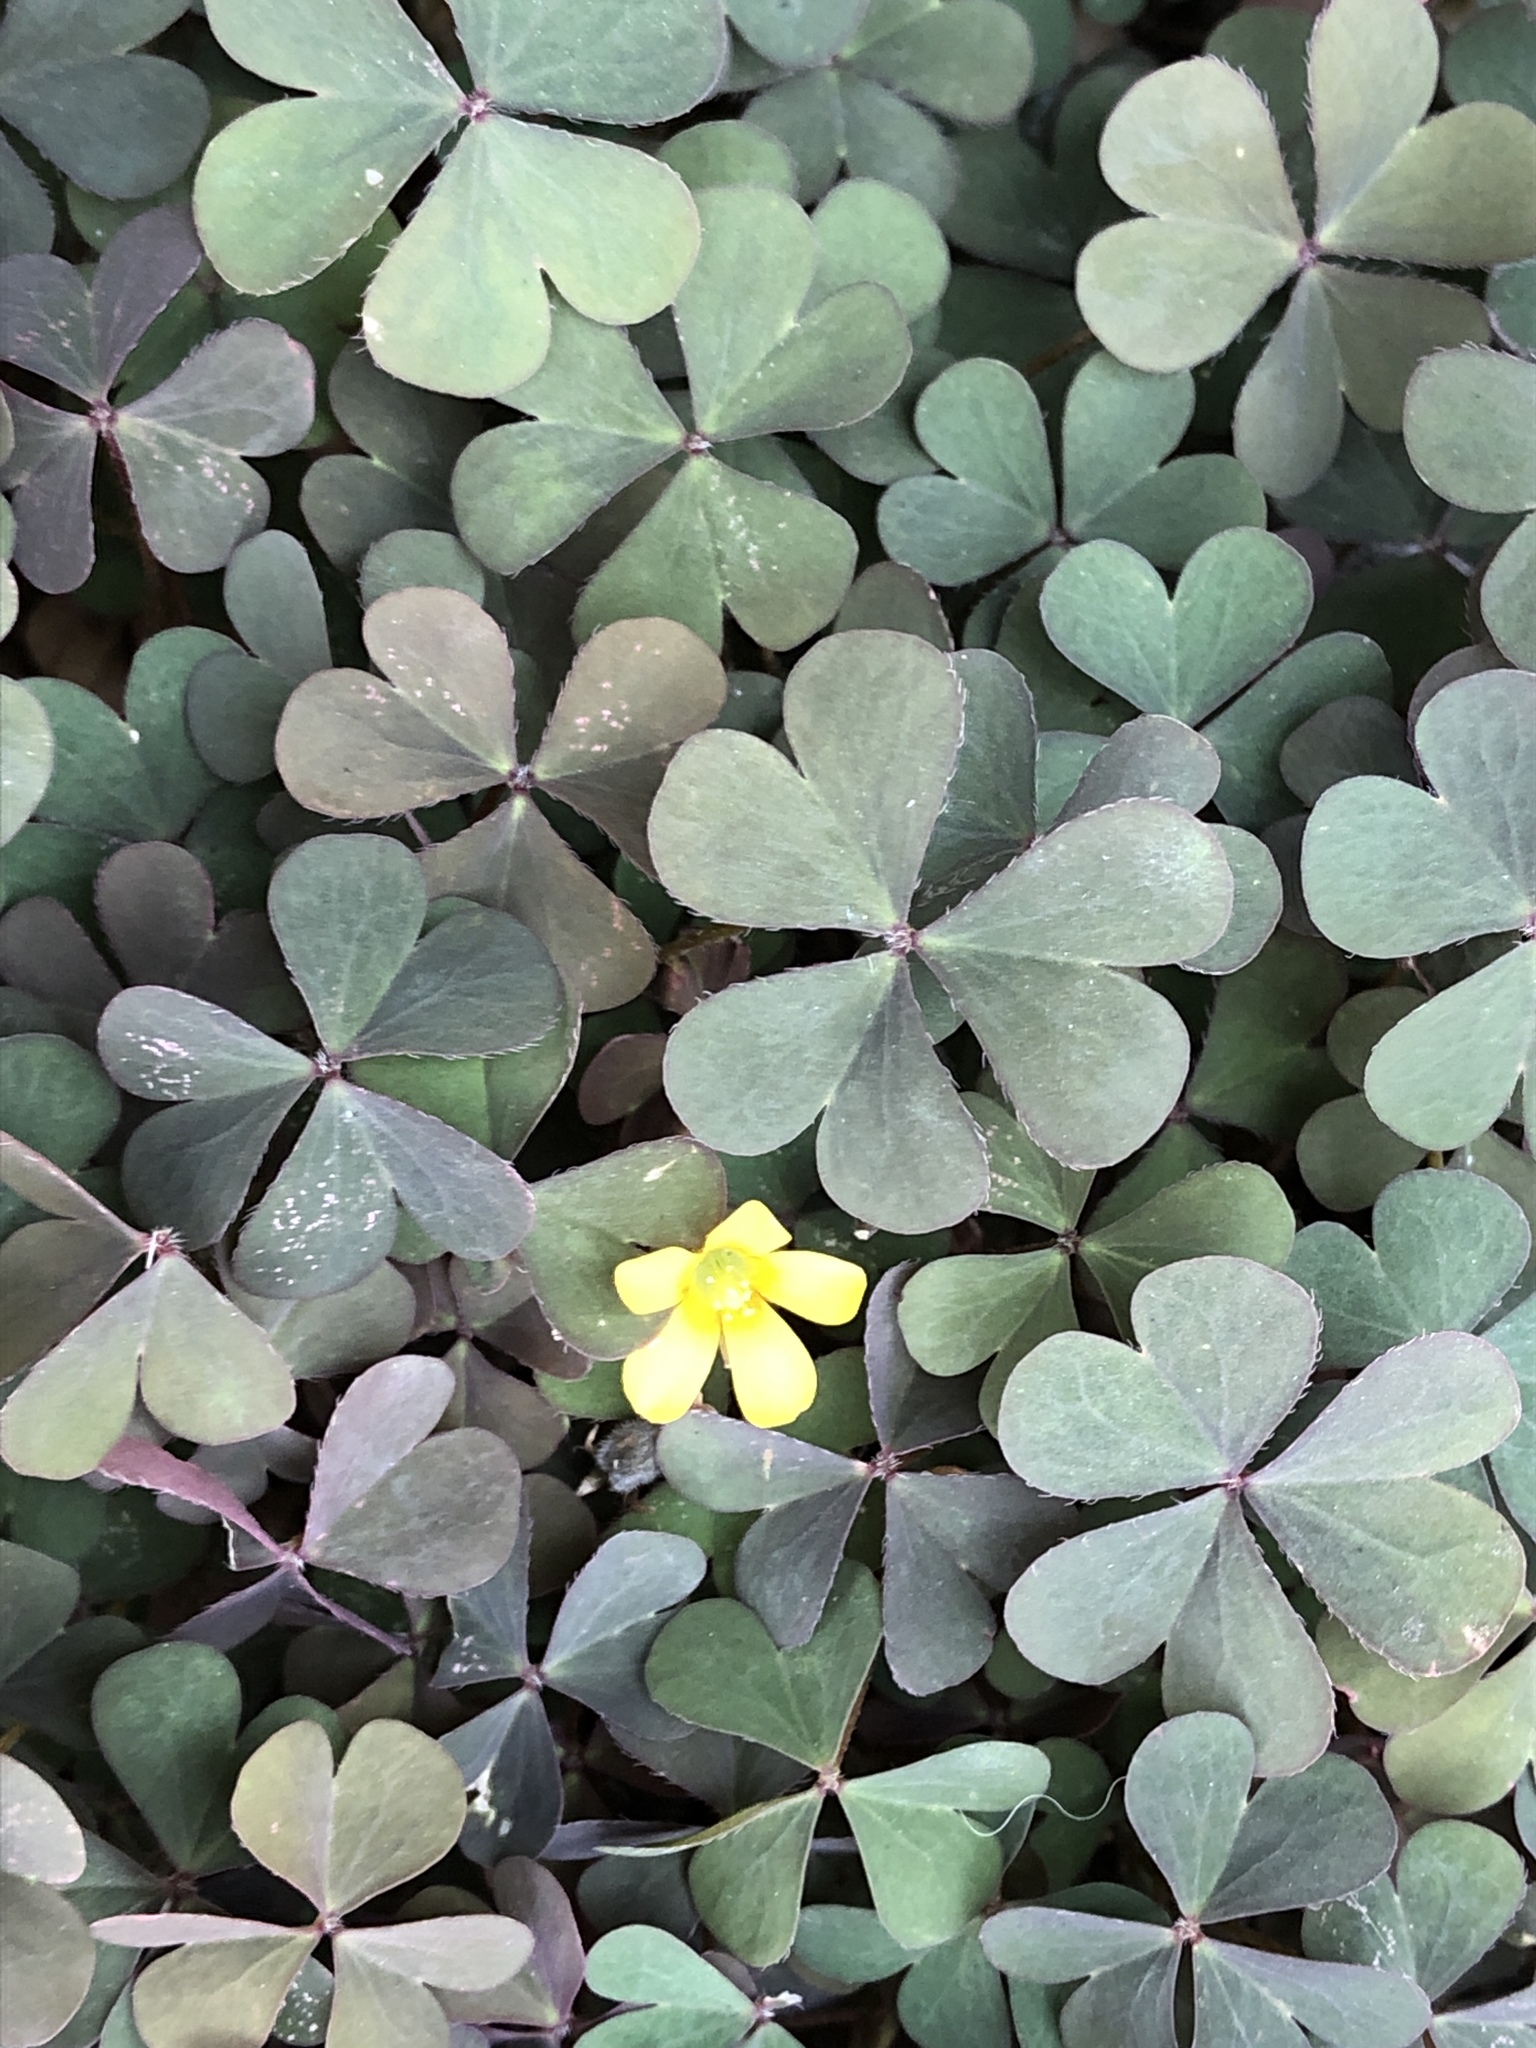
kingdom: Plantae
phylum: Tracheophyta
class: Magnoliopsida
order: Oxalidales
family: Oxalidaceae
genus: Oxalis
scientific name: Oxalis corniculata
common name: Procumbent yellow-sorrel
